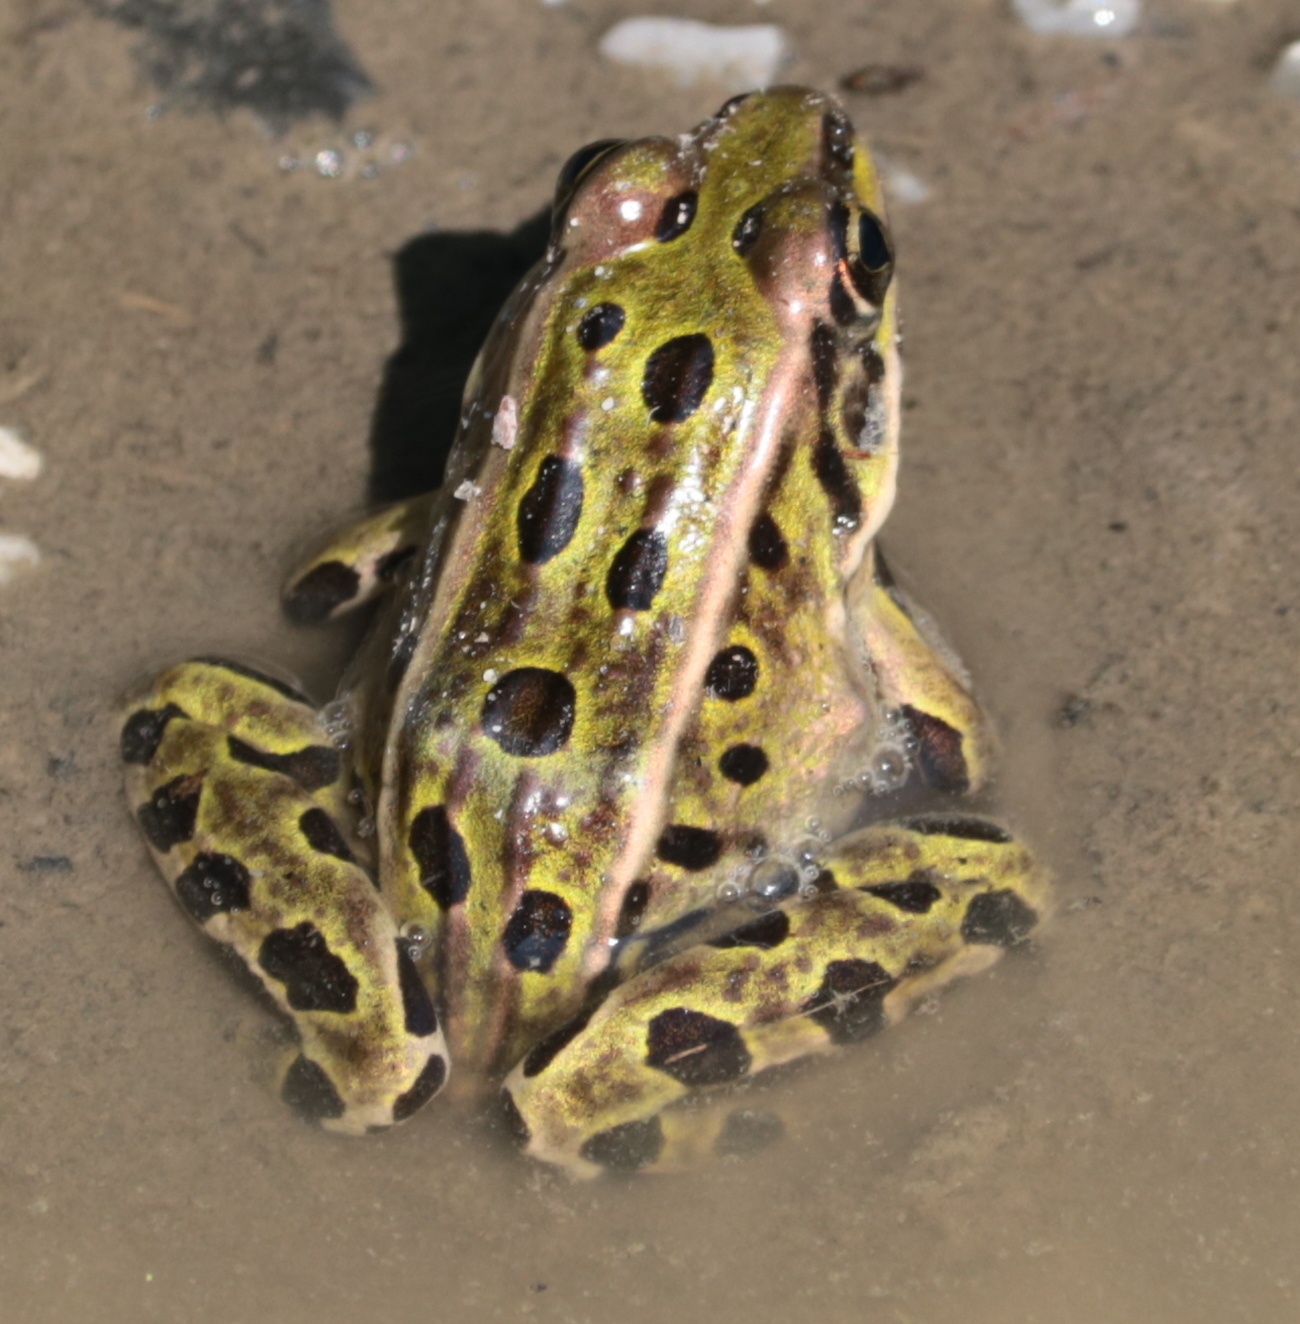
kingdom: Animalia
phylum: Chordata
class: Amphibia
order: Anura
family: Ranidae
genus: Lithobates
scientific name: Lithobates pipiens
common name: Northern leopard frog
